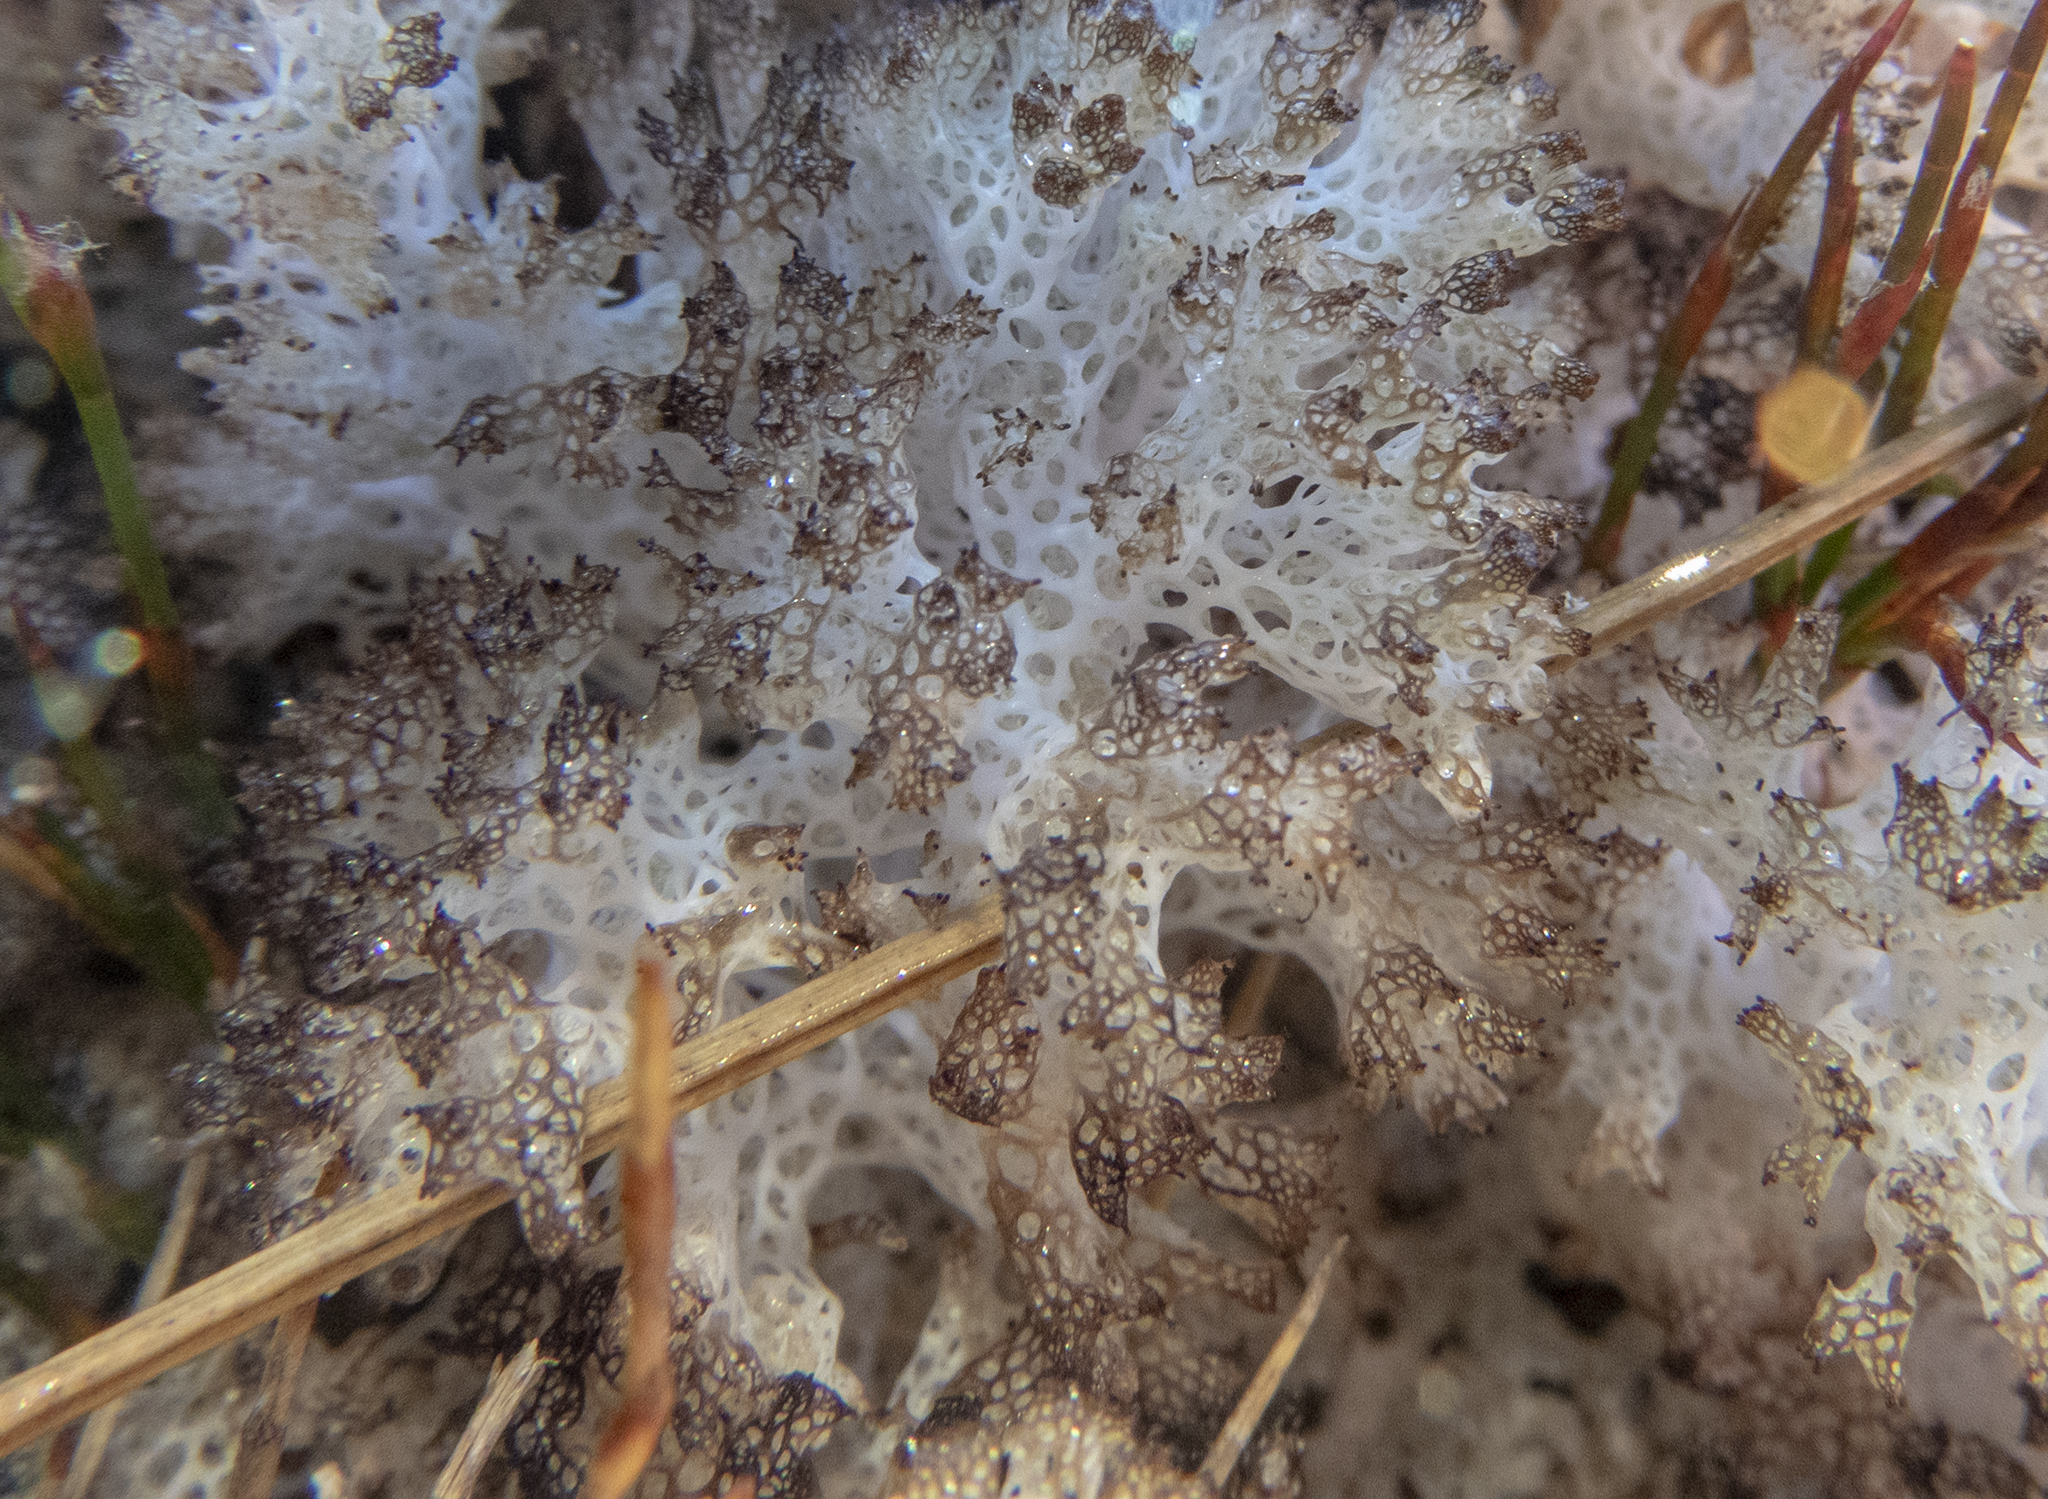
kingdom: Fungi
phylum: Ascomycota
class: Lecanoromycetes
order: Lecanorales
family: Cladoniaceae
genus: Pulchrocladia
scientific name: Pulchrocladia retipora
